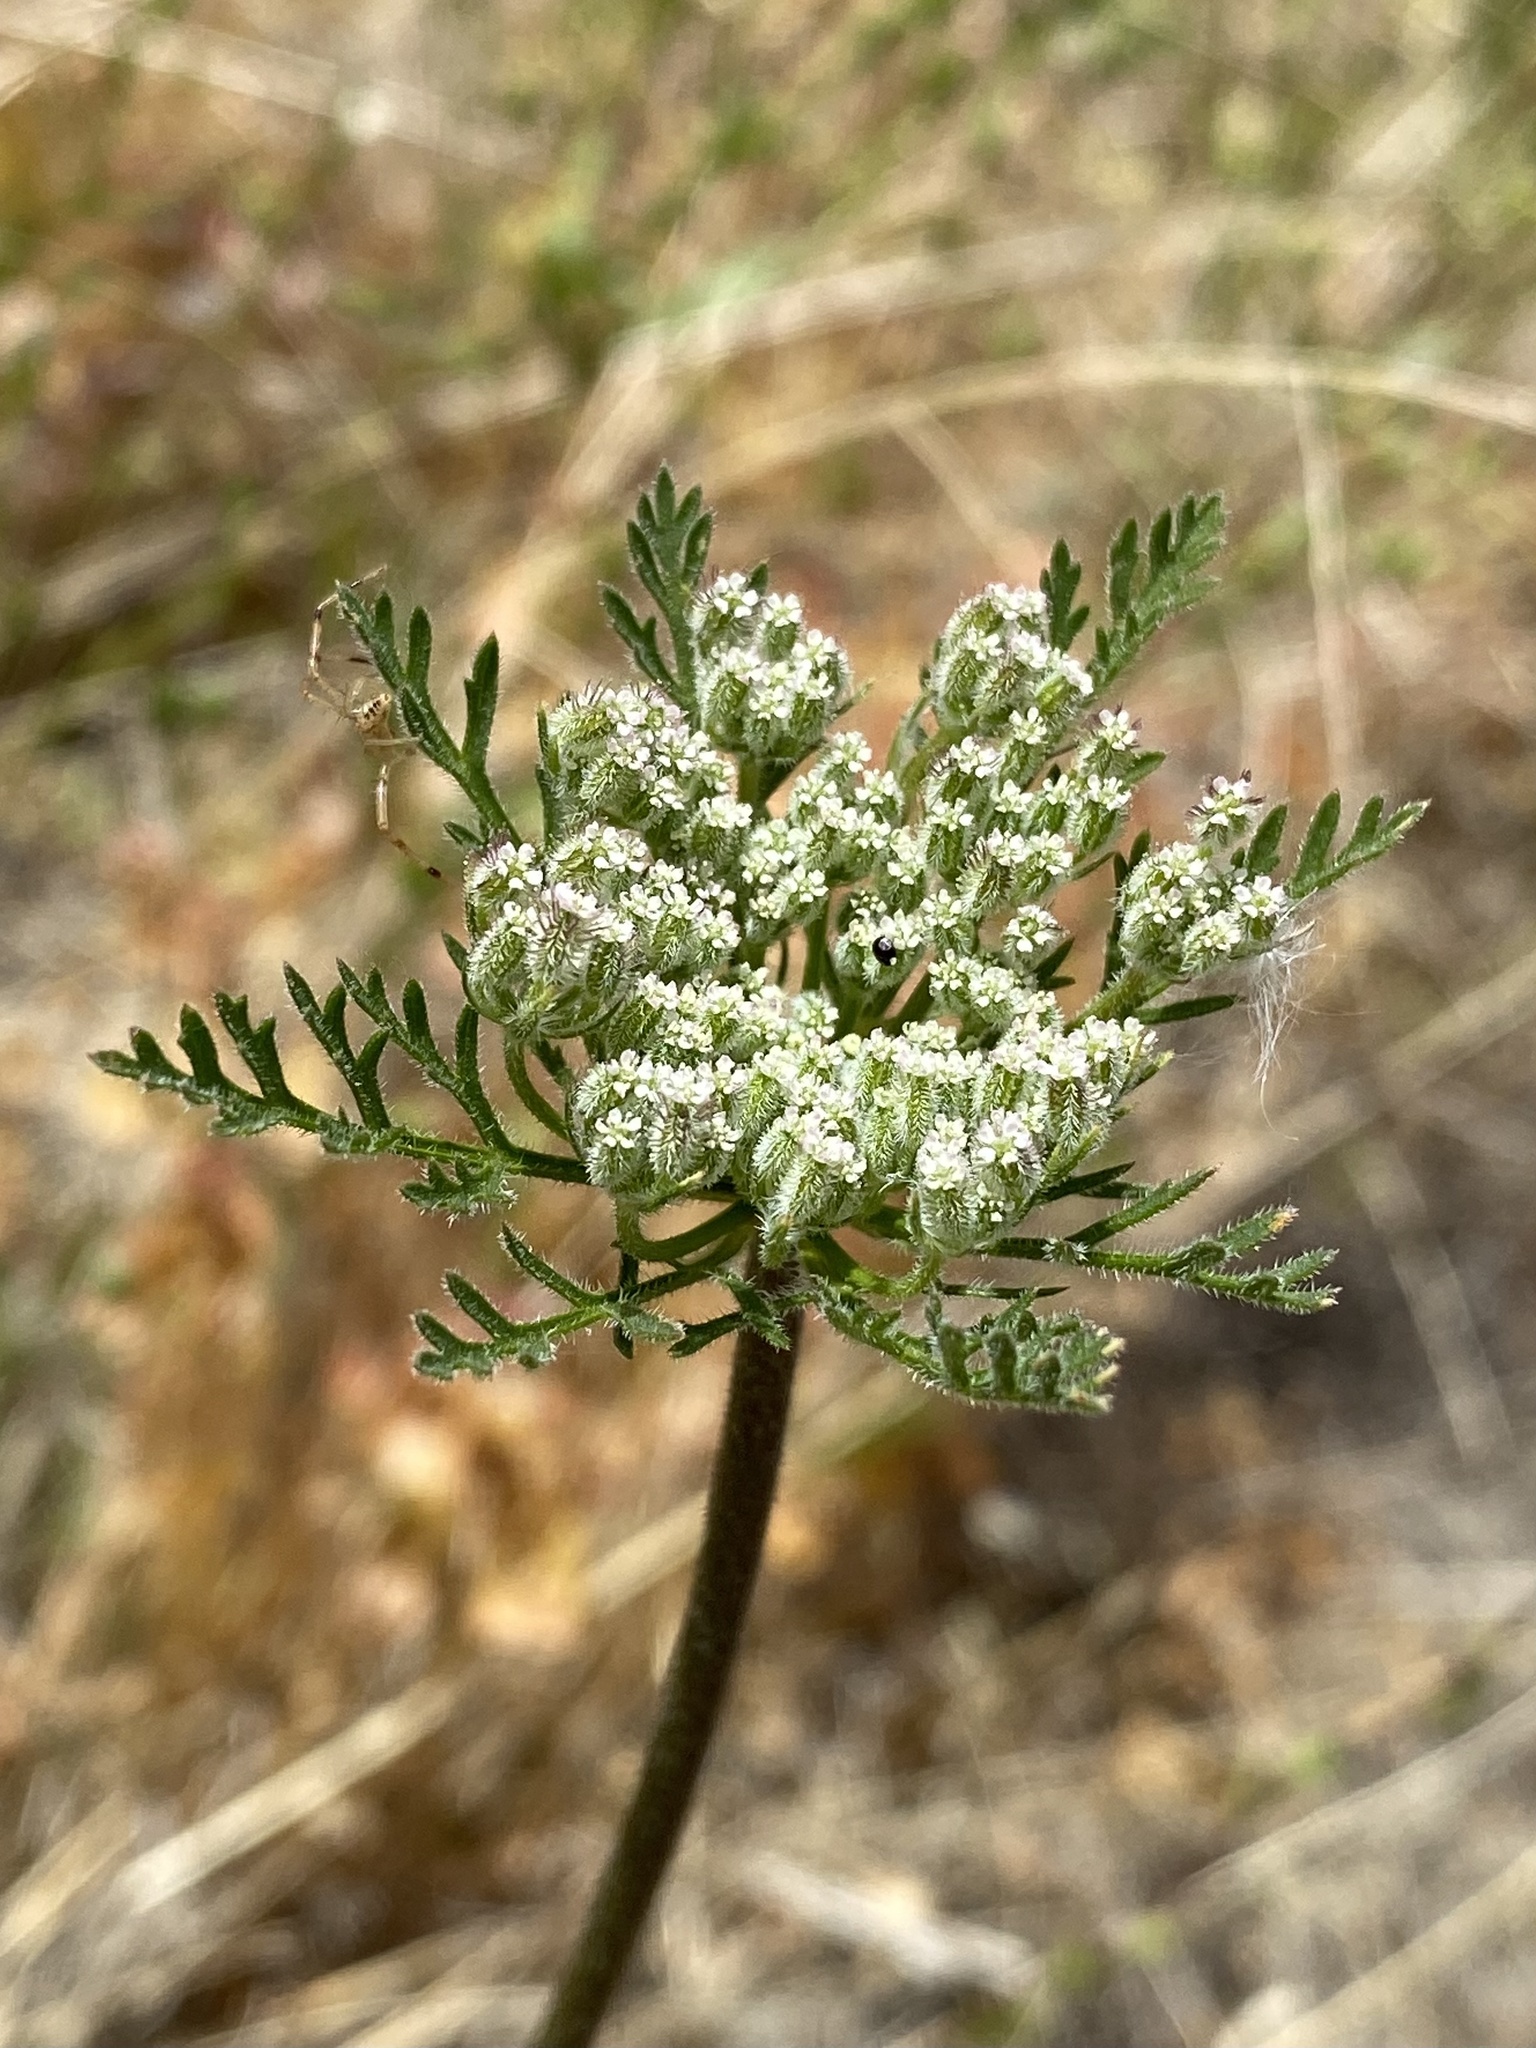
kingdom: Plantae
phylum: Tracheophyta
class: Magnoliopsida
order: Apiales
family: Apiaceae
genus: Daucus
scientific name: Daucus pusillus
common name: Southwest wild carrot
